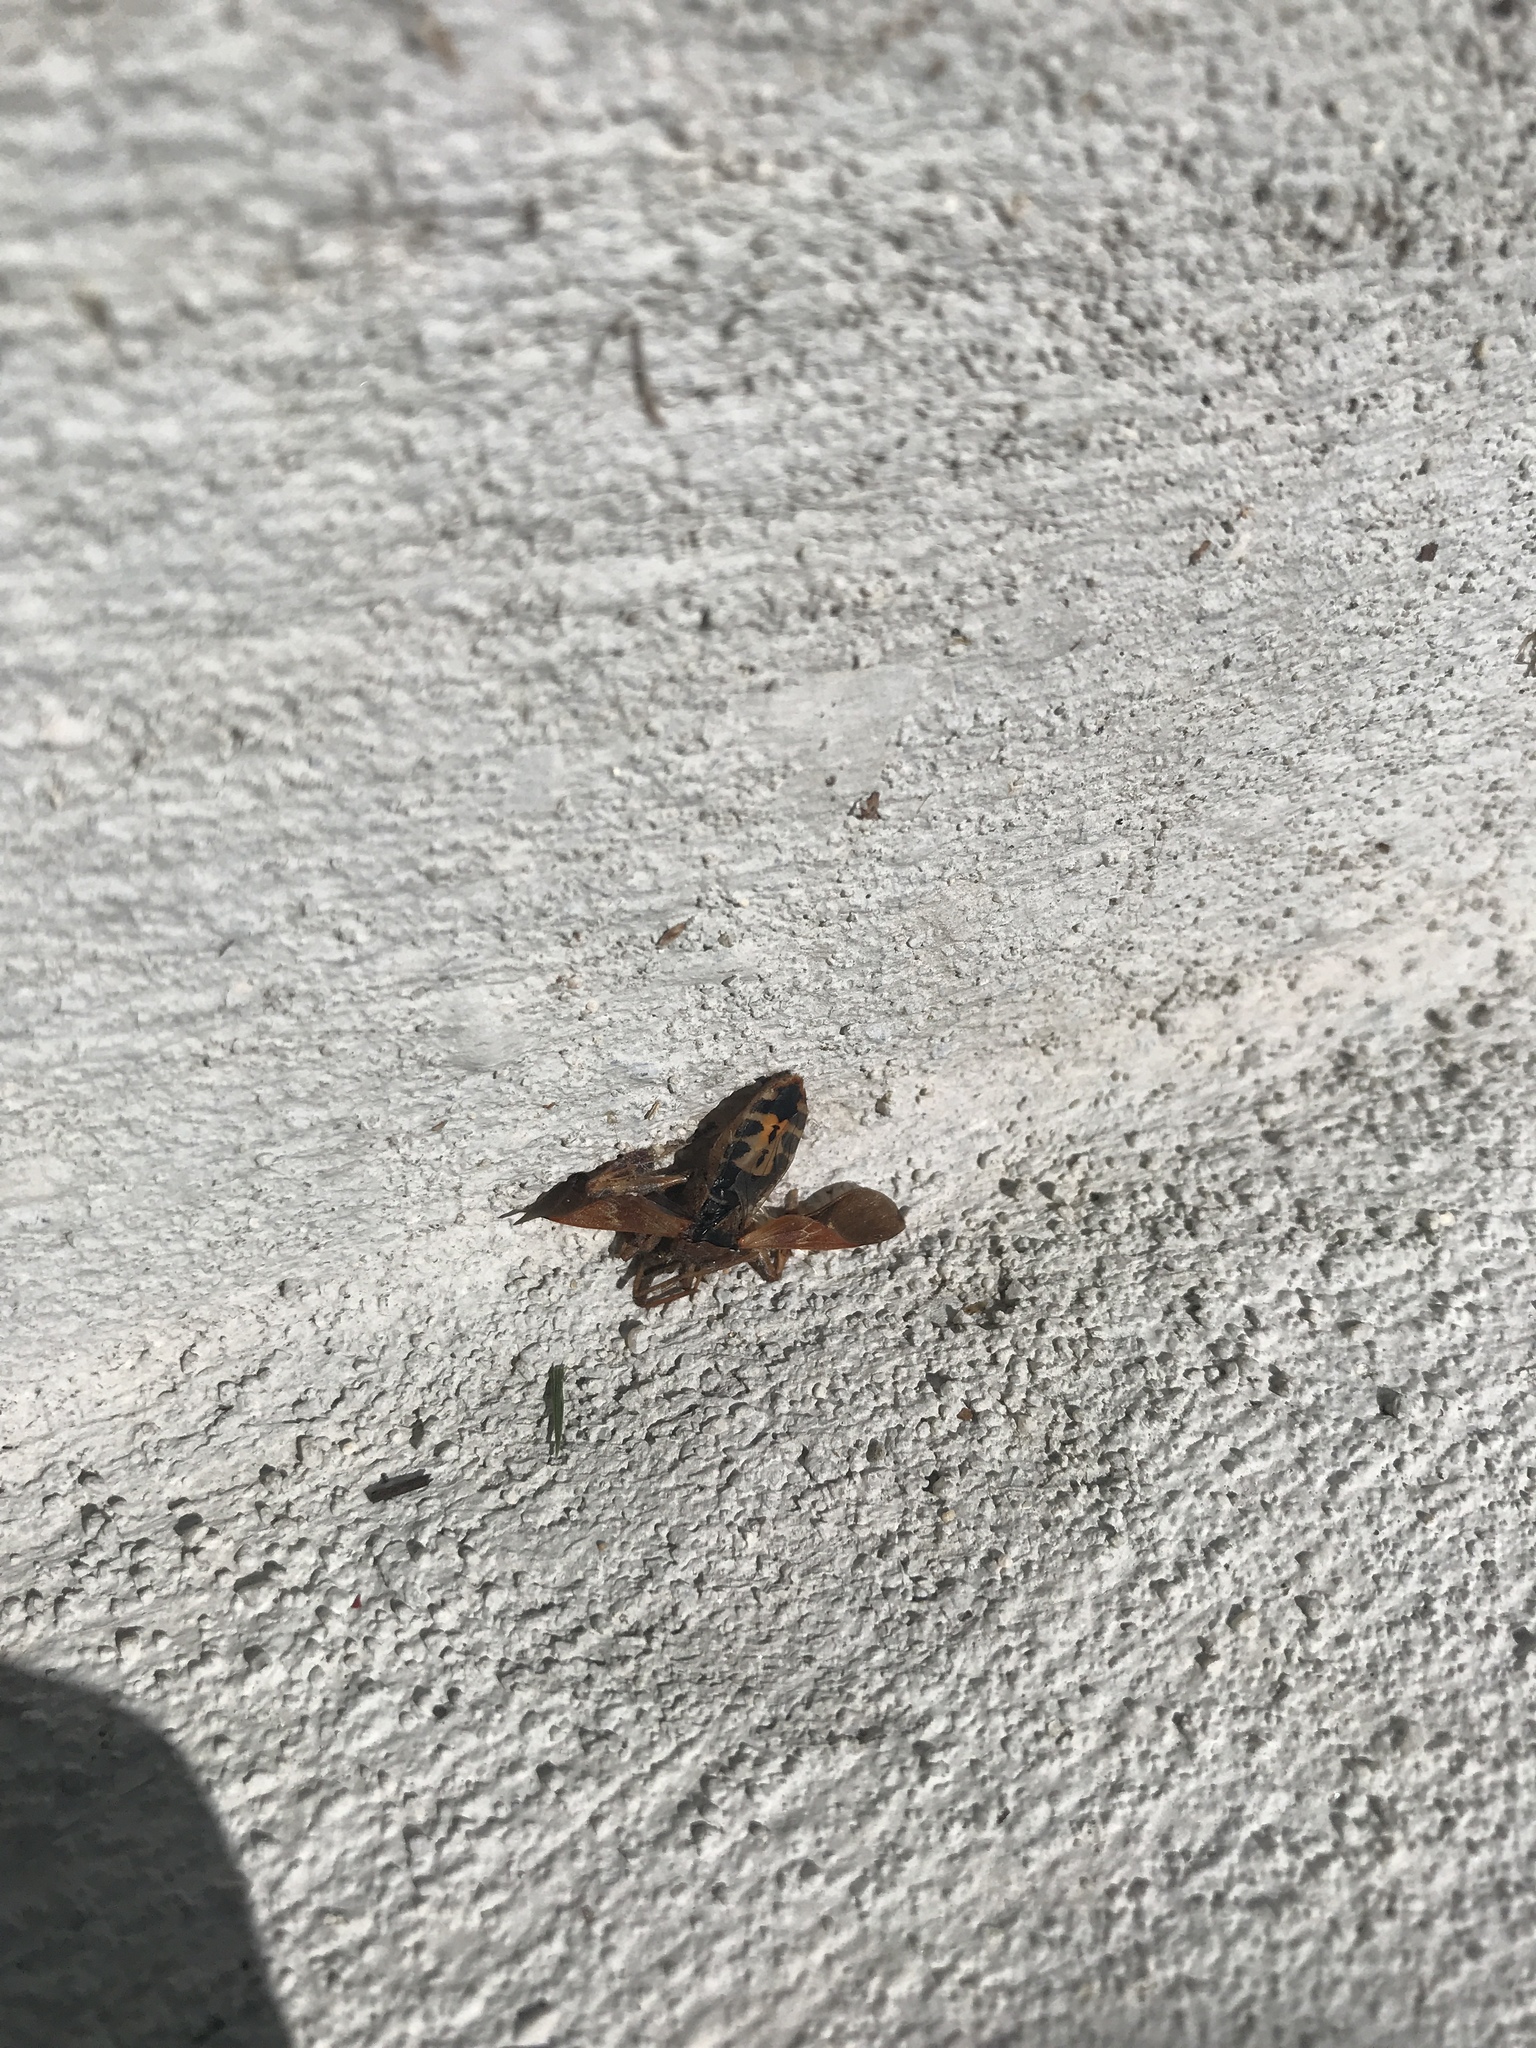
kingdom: Animalia
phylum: Arthropoda
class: Insecta
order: Hemiptera
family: Coreidae
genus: Leptoglossus
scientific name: Leptoglossus occidentalis
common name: Western conifer-seed bug
